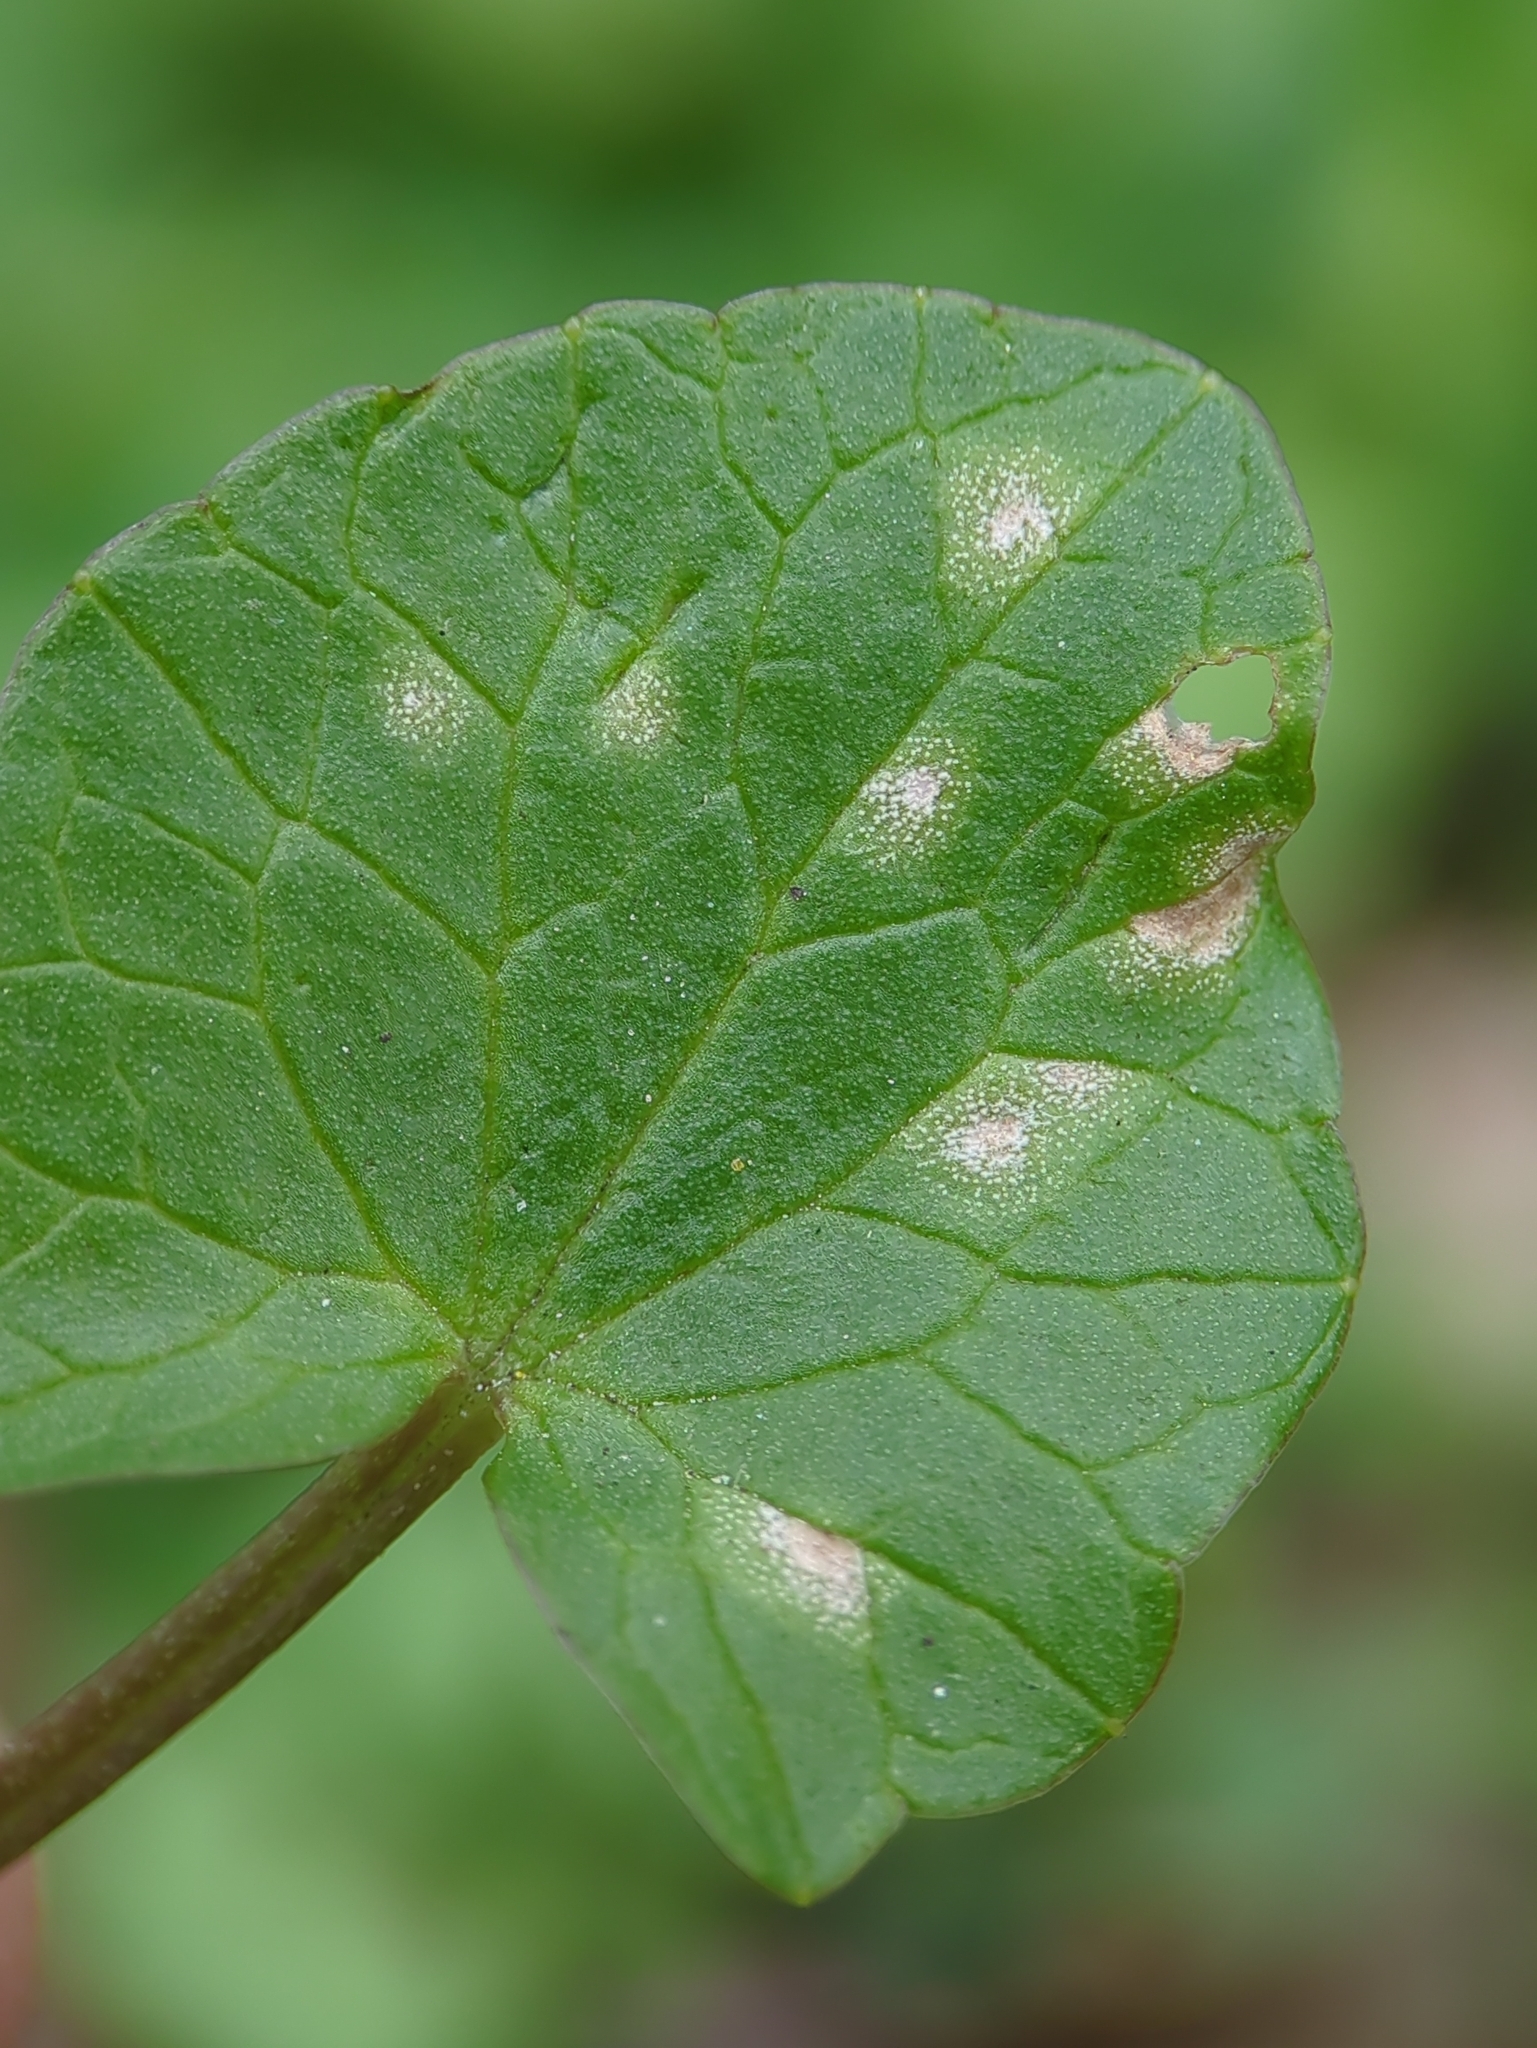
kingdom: Fungi
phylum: Basidiomycota
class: Exobasidiomycetes
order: Entylomatales
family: Entylomataceae
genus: Entyloma
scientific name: Entyloma ficariae
